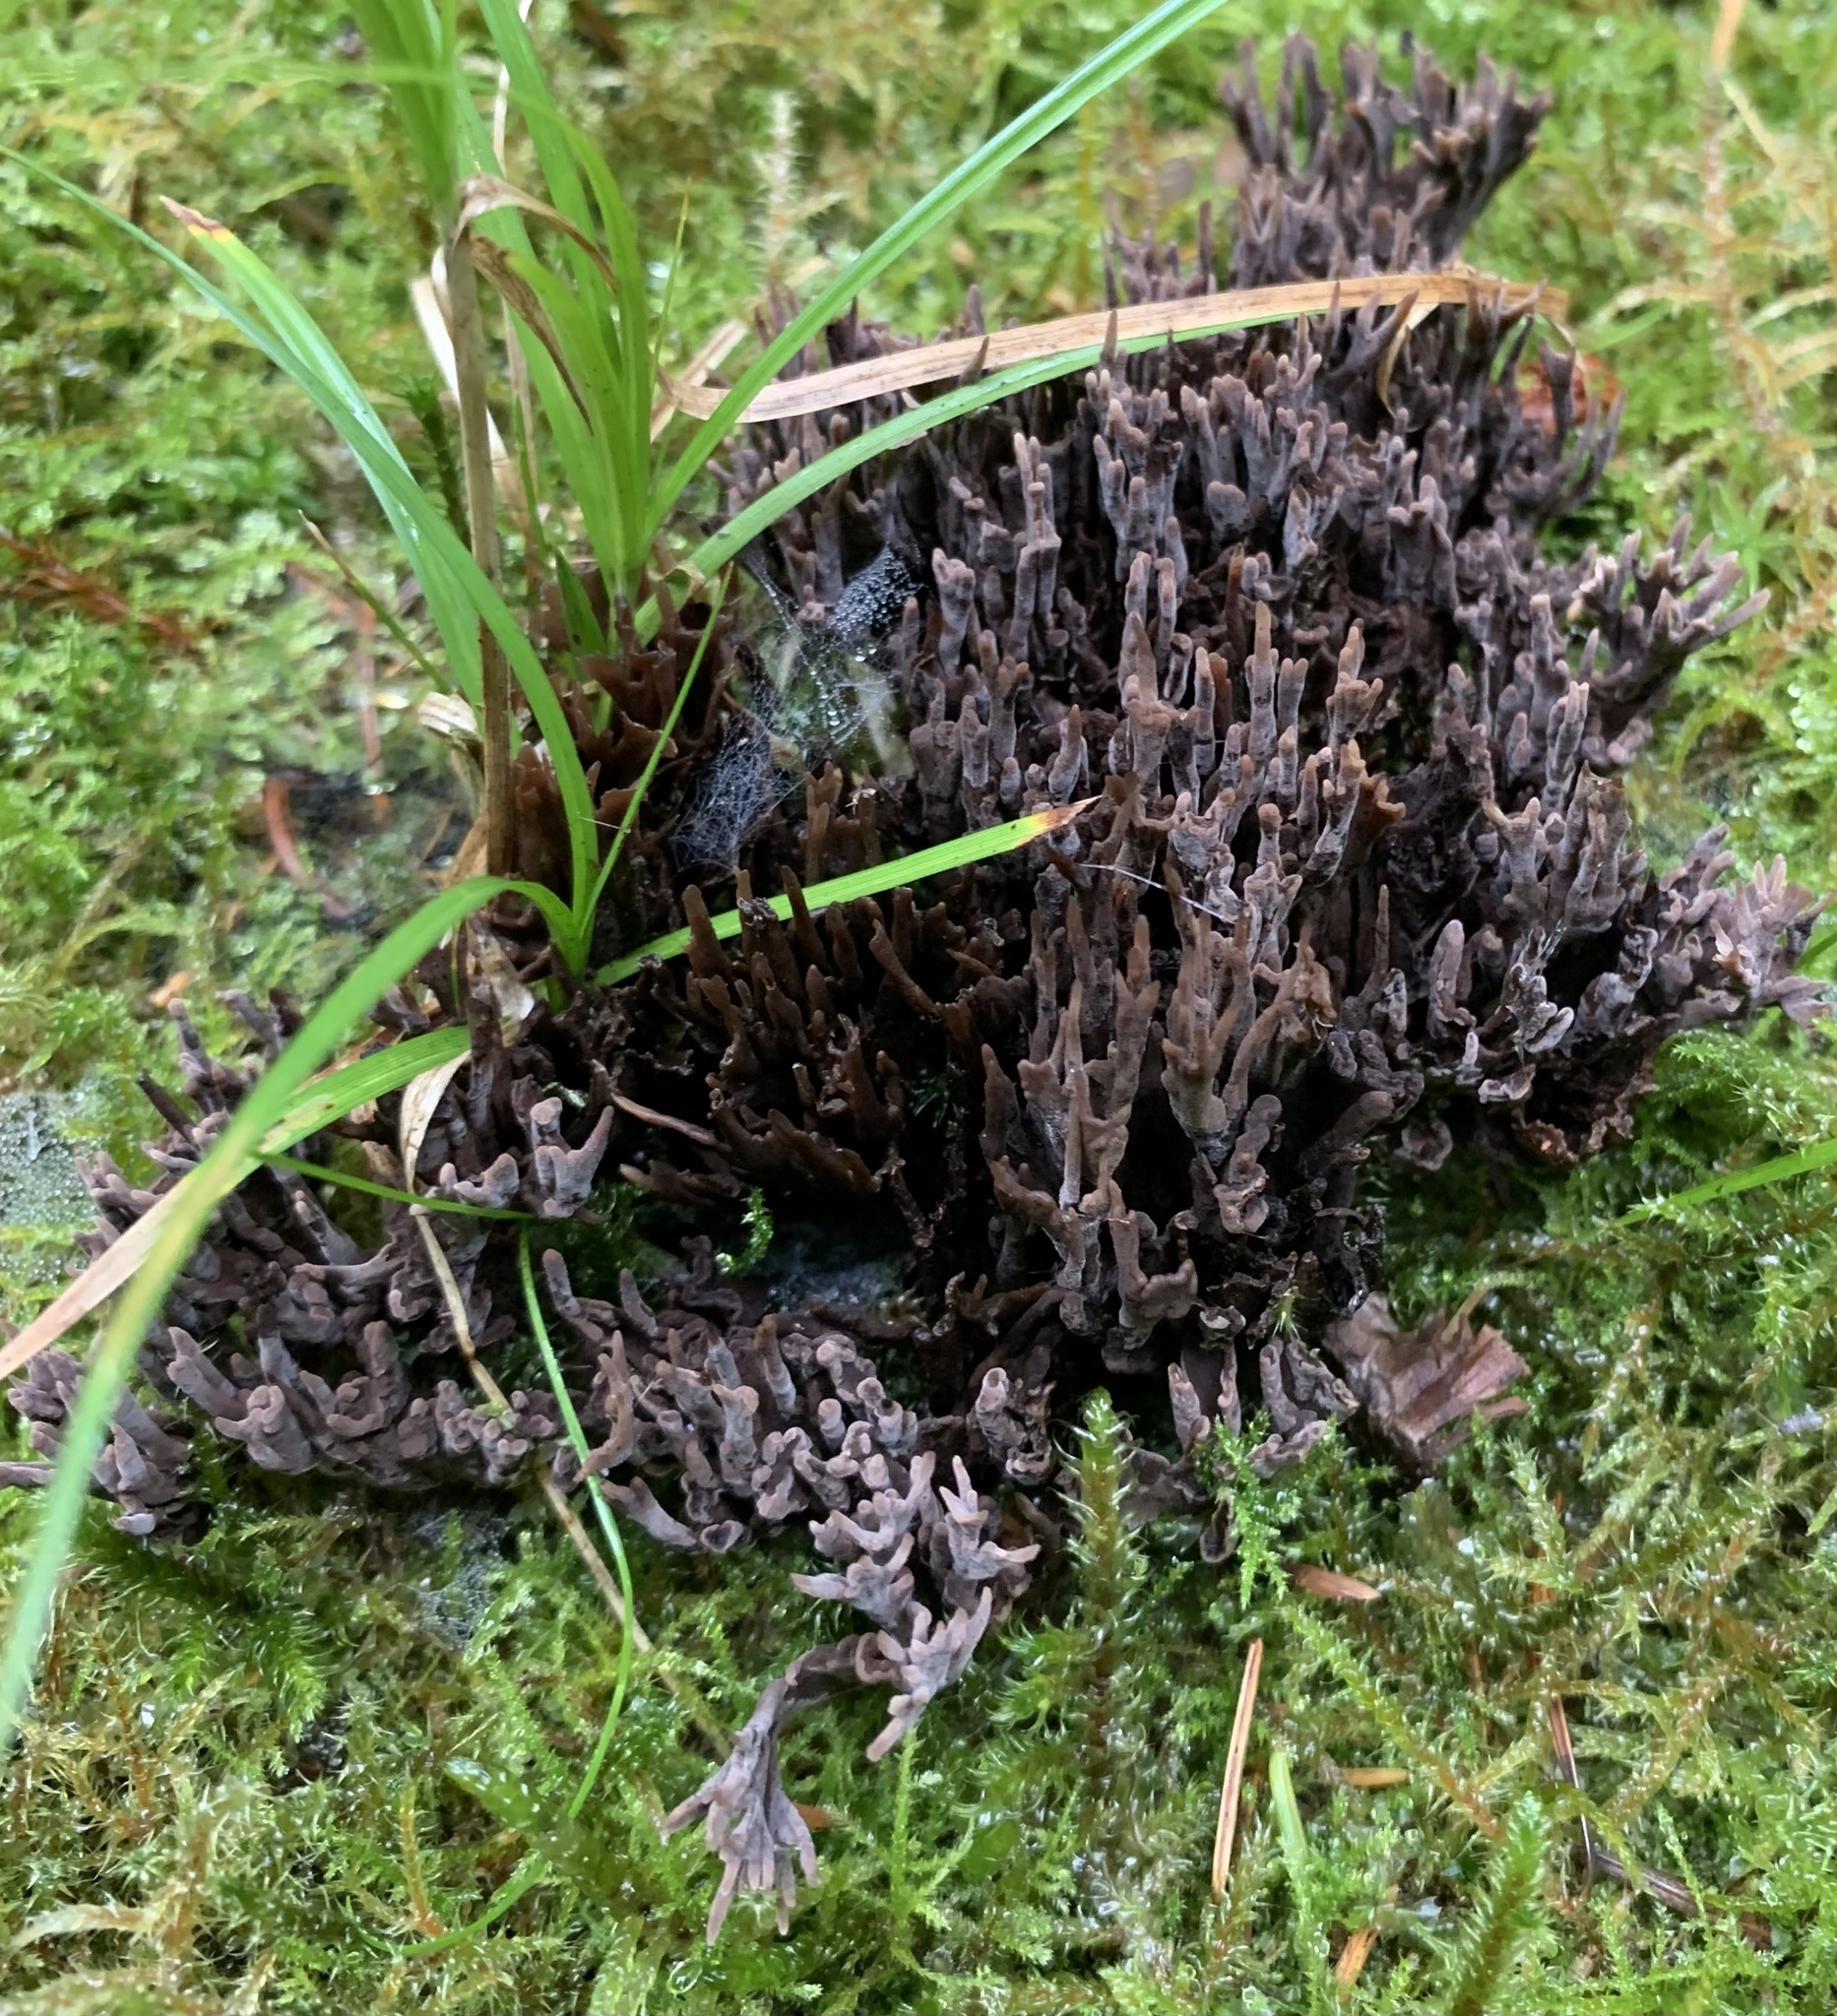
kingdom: Fungi
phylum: Basidiomycota
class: Agaricomycetes
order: Thelephorales
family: Thelephoraceae
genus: Thelephora
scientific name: Thelephora palmata
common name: Stinking earthfan
